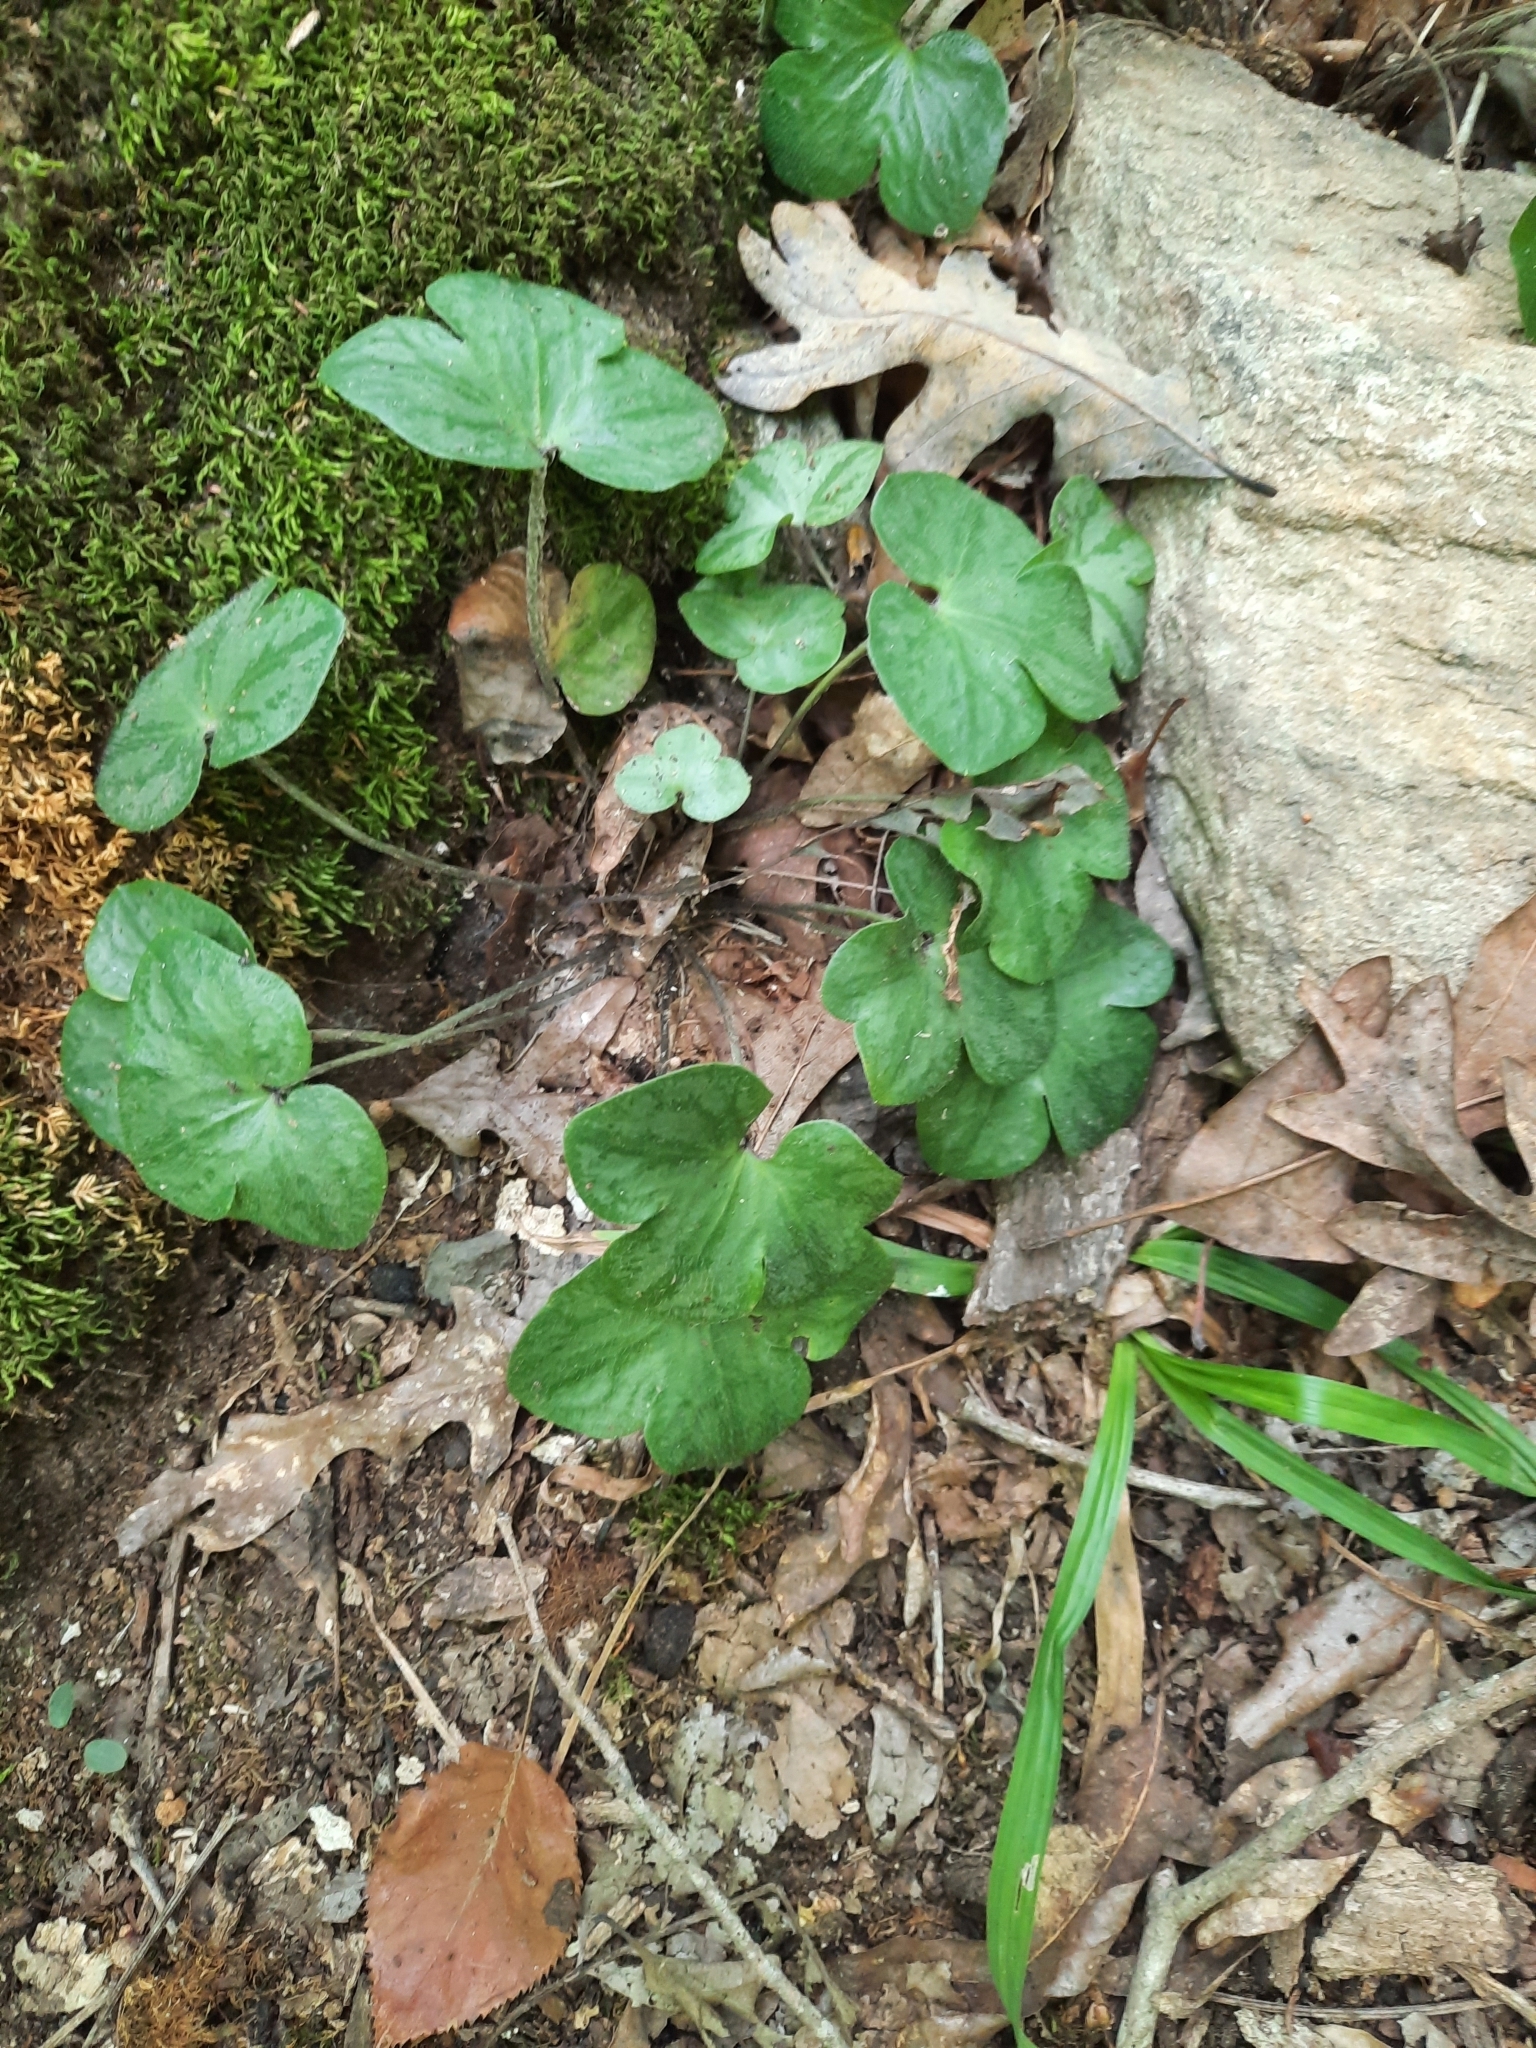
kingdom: Plantae
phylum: Tracheophyta
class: Magnoliopsida
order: Ranunculales
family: Ranunculaceae
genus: Hepatica
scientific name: Hepatica americana
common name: American hepatica
